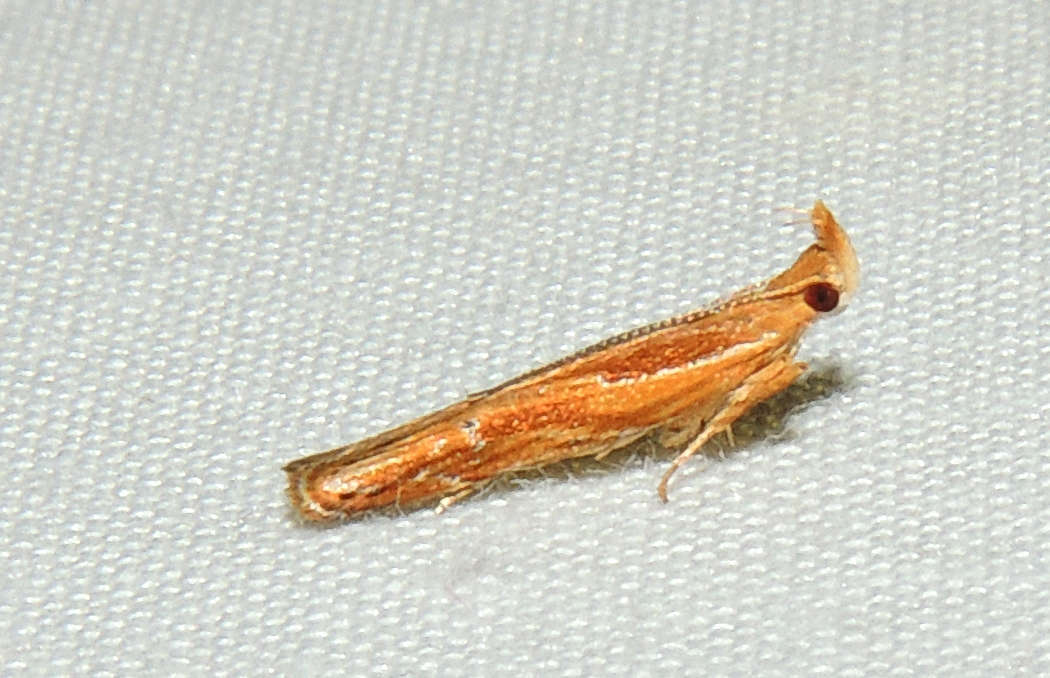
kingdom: Animalia
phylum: Arthropoda
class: Insecta
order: Lepidoptera
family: Depressariidae
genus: Eutorna
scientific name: Eutorna tricasis
